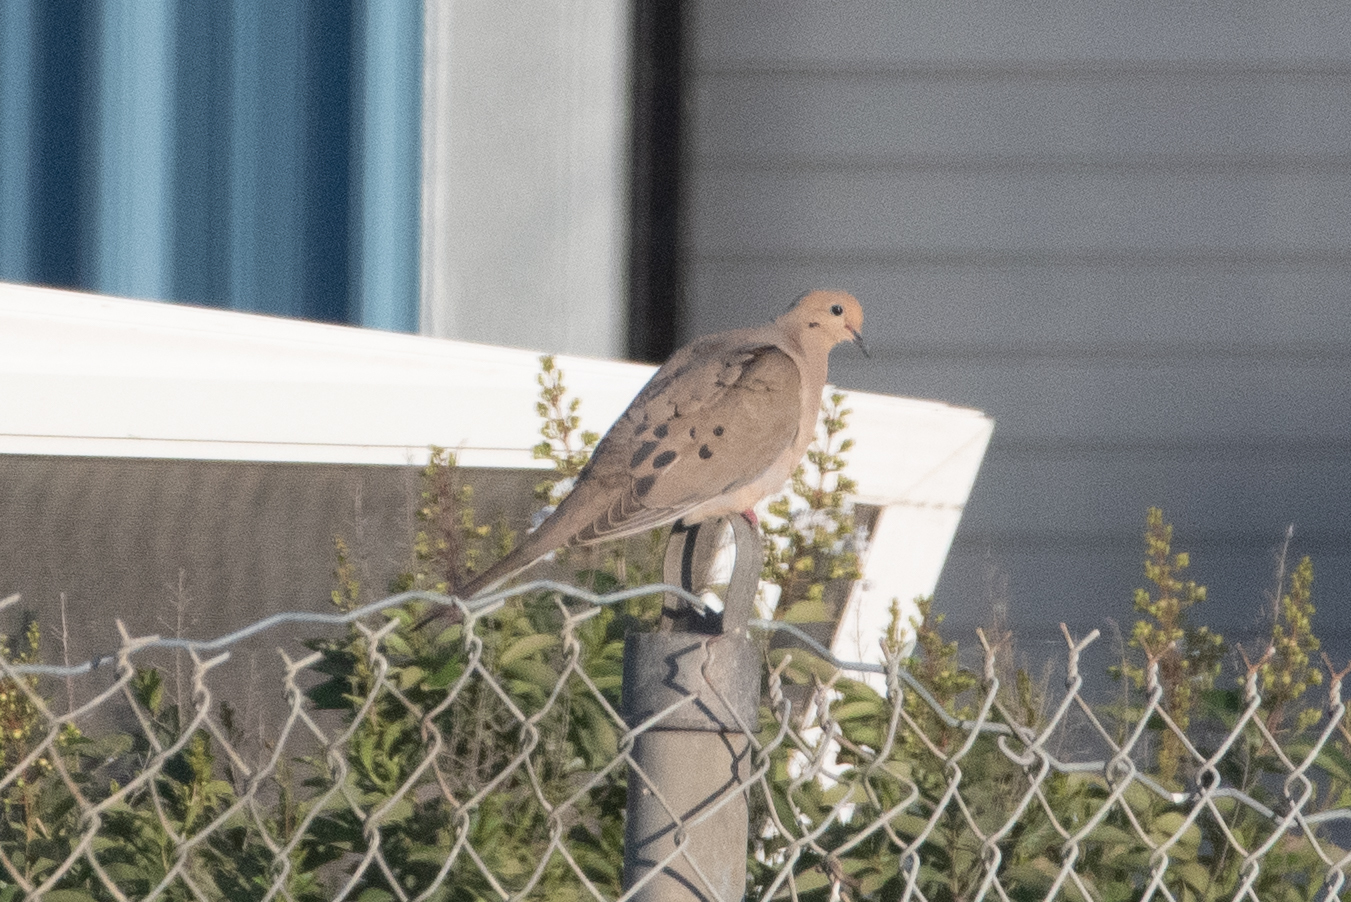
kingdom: Animalia
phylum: Chordata
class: Aves
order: Columbiformes
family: Columbidae
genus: Zenaida
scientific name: Zenaida macroura
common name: Mourning dove
